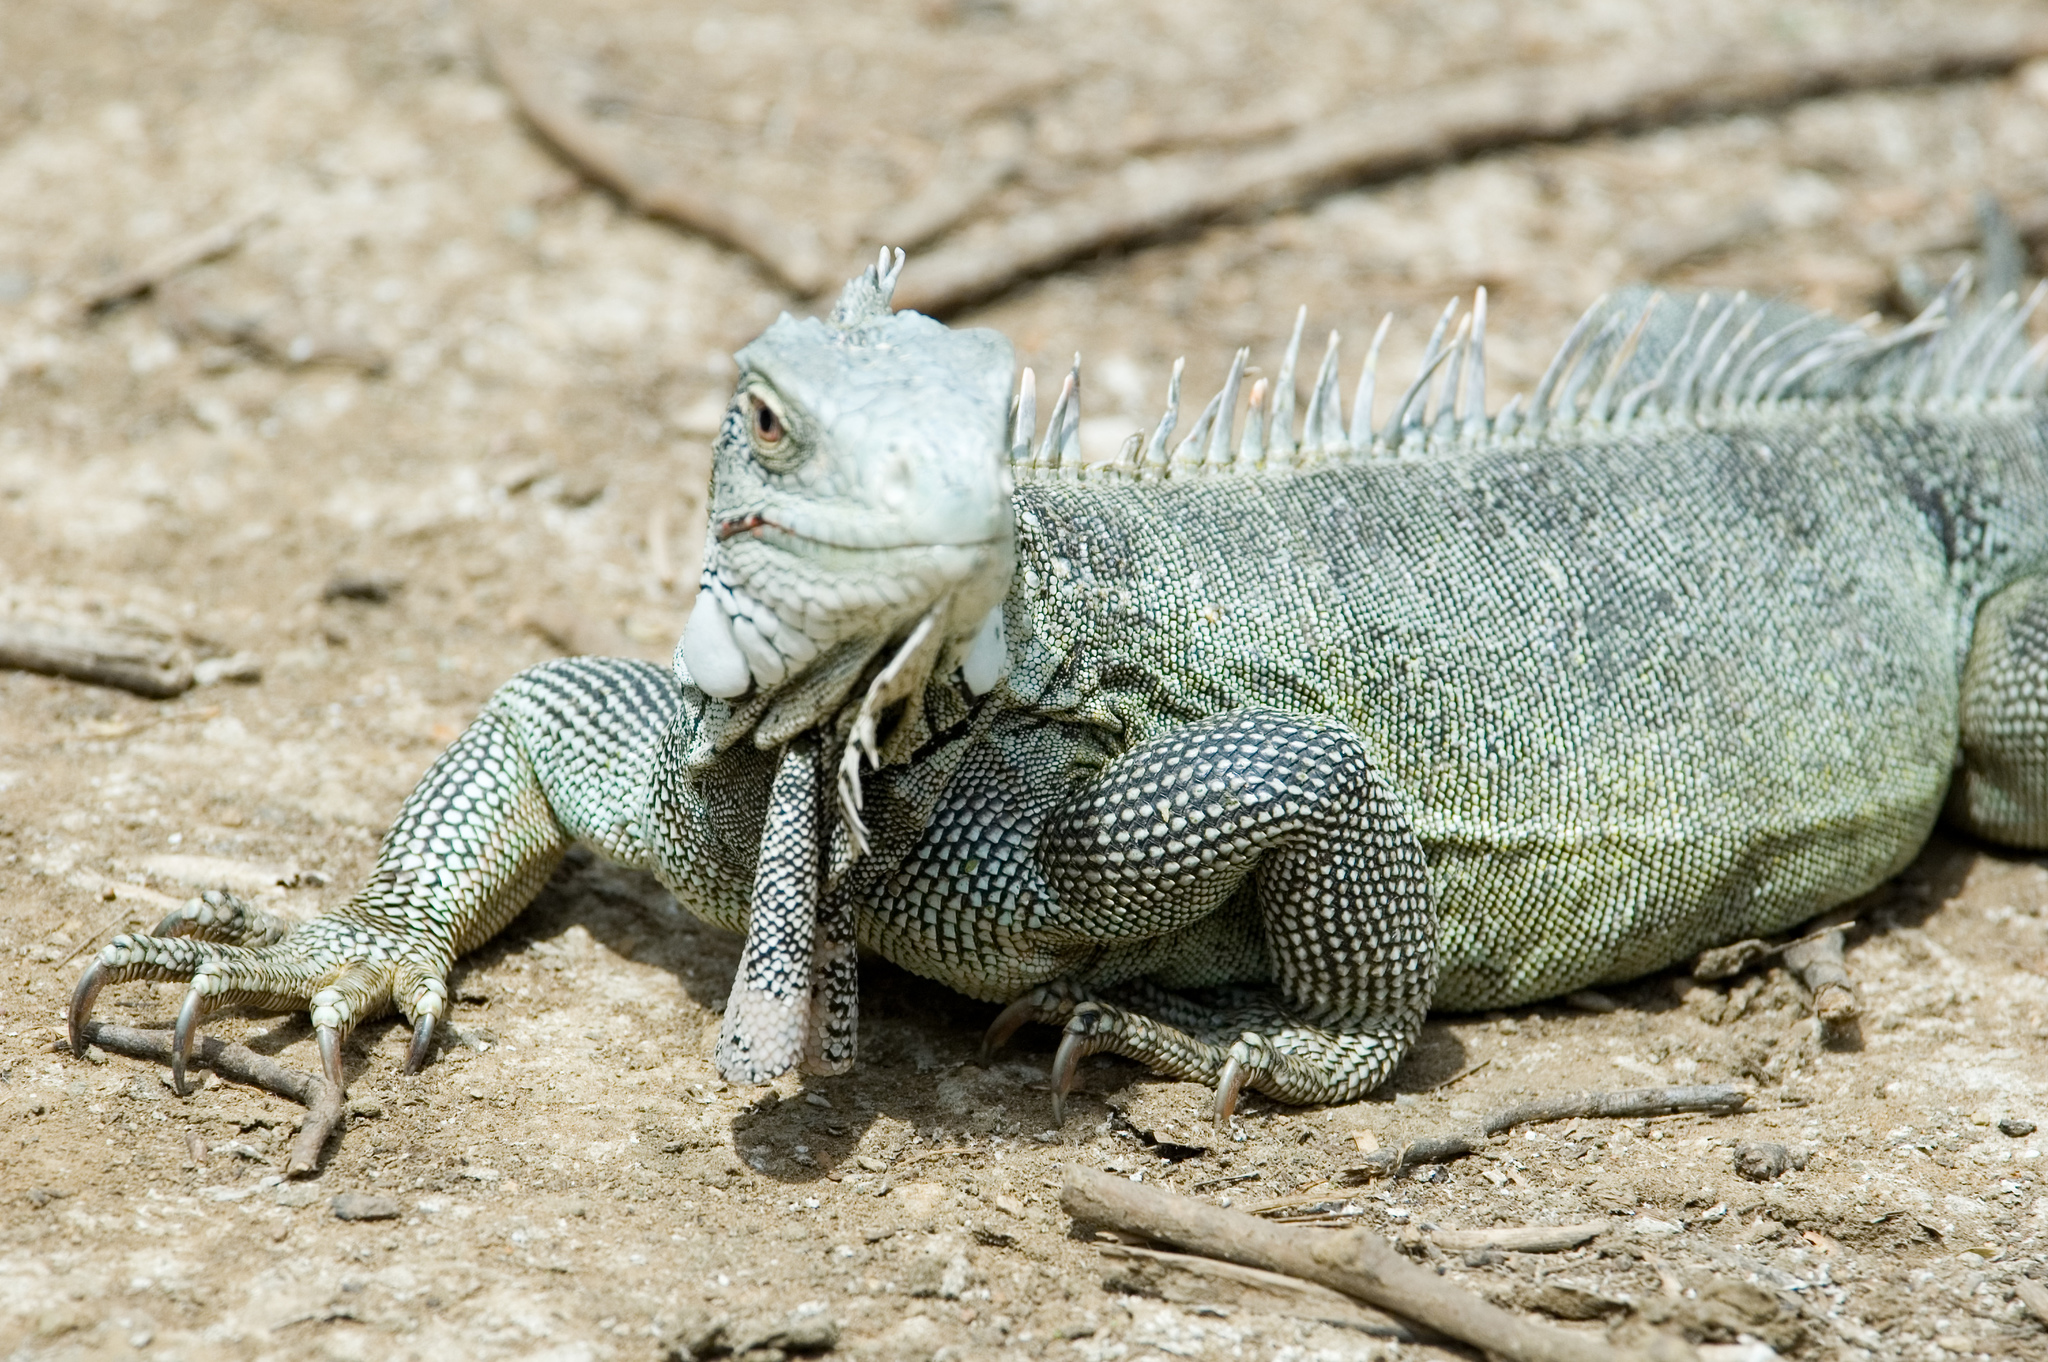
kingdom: Animalia
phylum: Chordata
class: Squamata
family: Iguanidae
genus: Iguana
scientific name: Iguana iguana
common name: Green iguana
